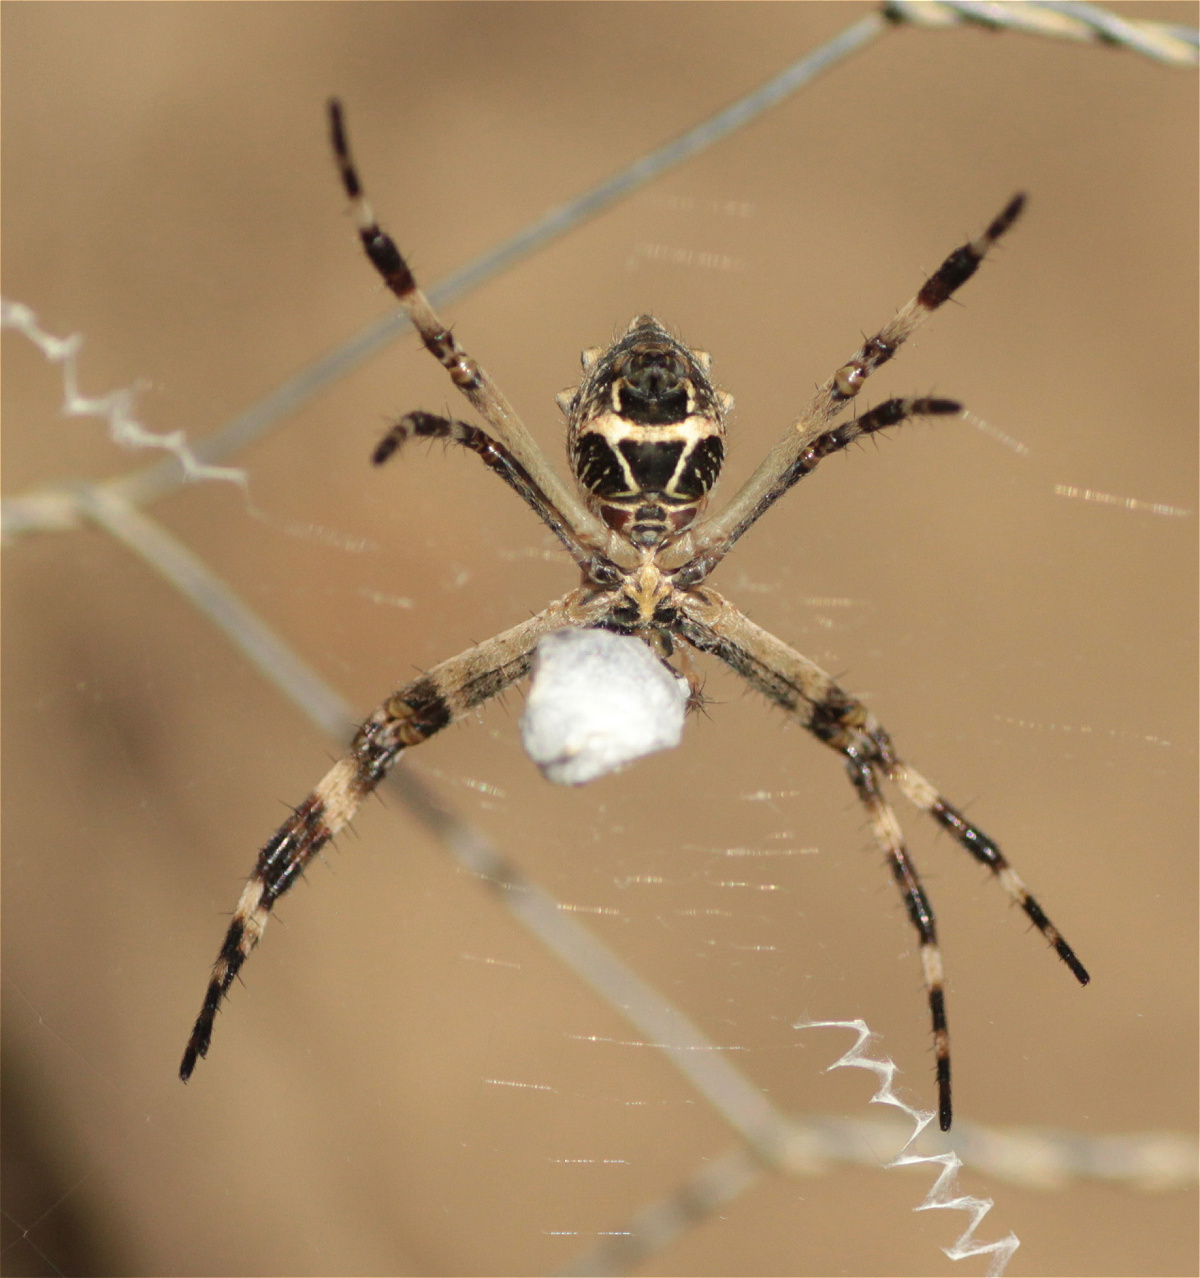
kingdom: Animalia
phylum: Arthropoda
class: Arachnida
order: Araneae
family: Araneidae
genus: Argiope
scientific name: Argiope argentata
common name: Orb weavers
